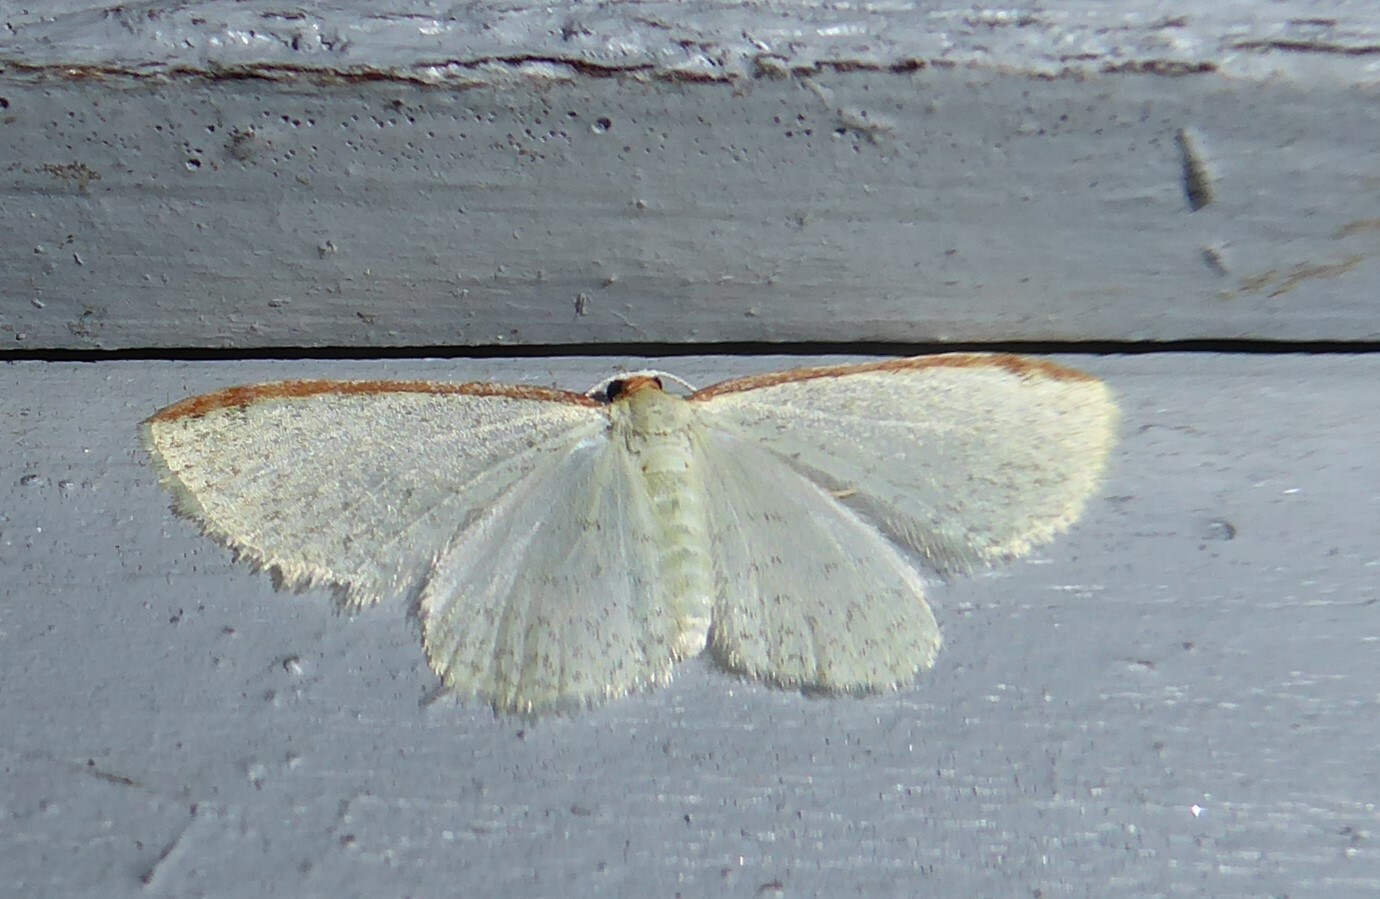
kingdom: Animalia
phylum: Arthropoda
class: Insecta
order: Lepidoptera
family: Geometridae
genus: Epiphryne
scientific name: Epiphryne undosata
